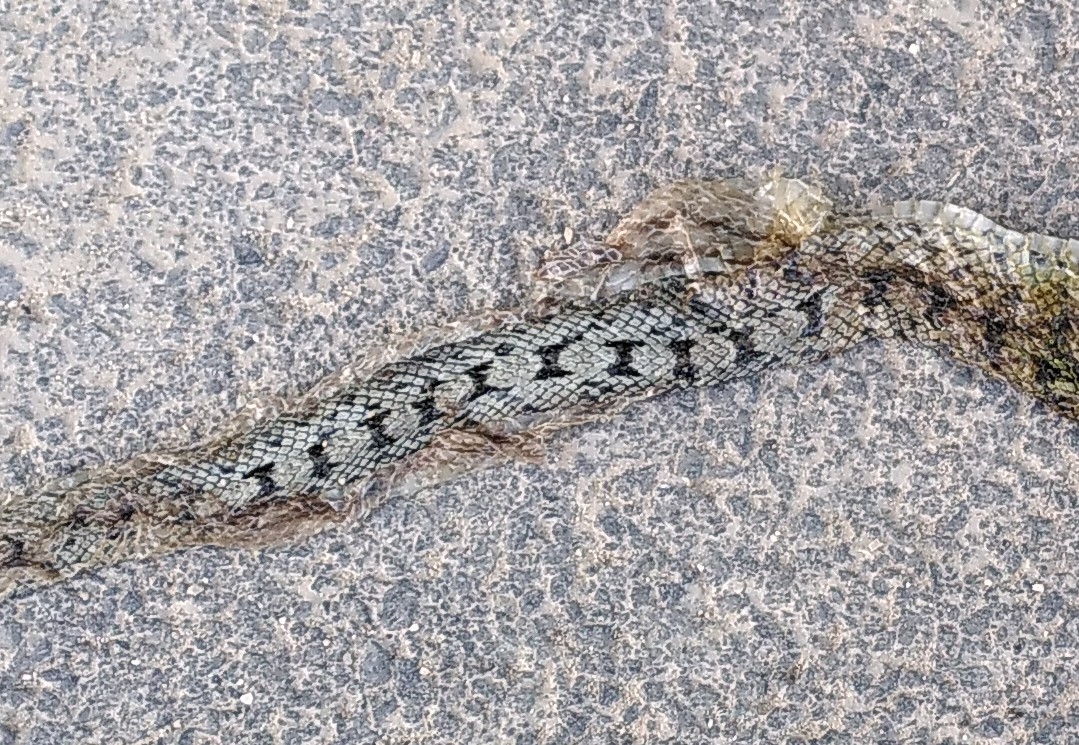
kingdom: Animalia
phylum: Chordata
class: Squamata
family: Colubridae
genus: Zamenis
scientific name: Zamenis scalaris
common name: Ladder snakes
